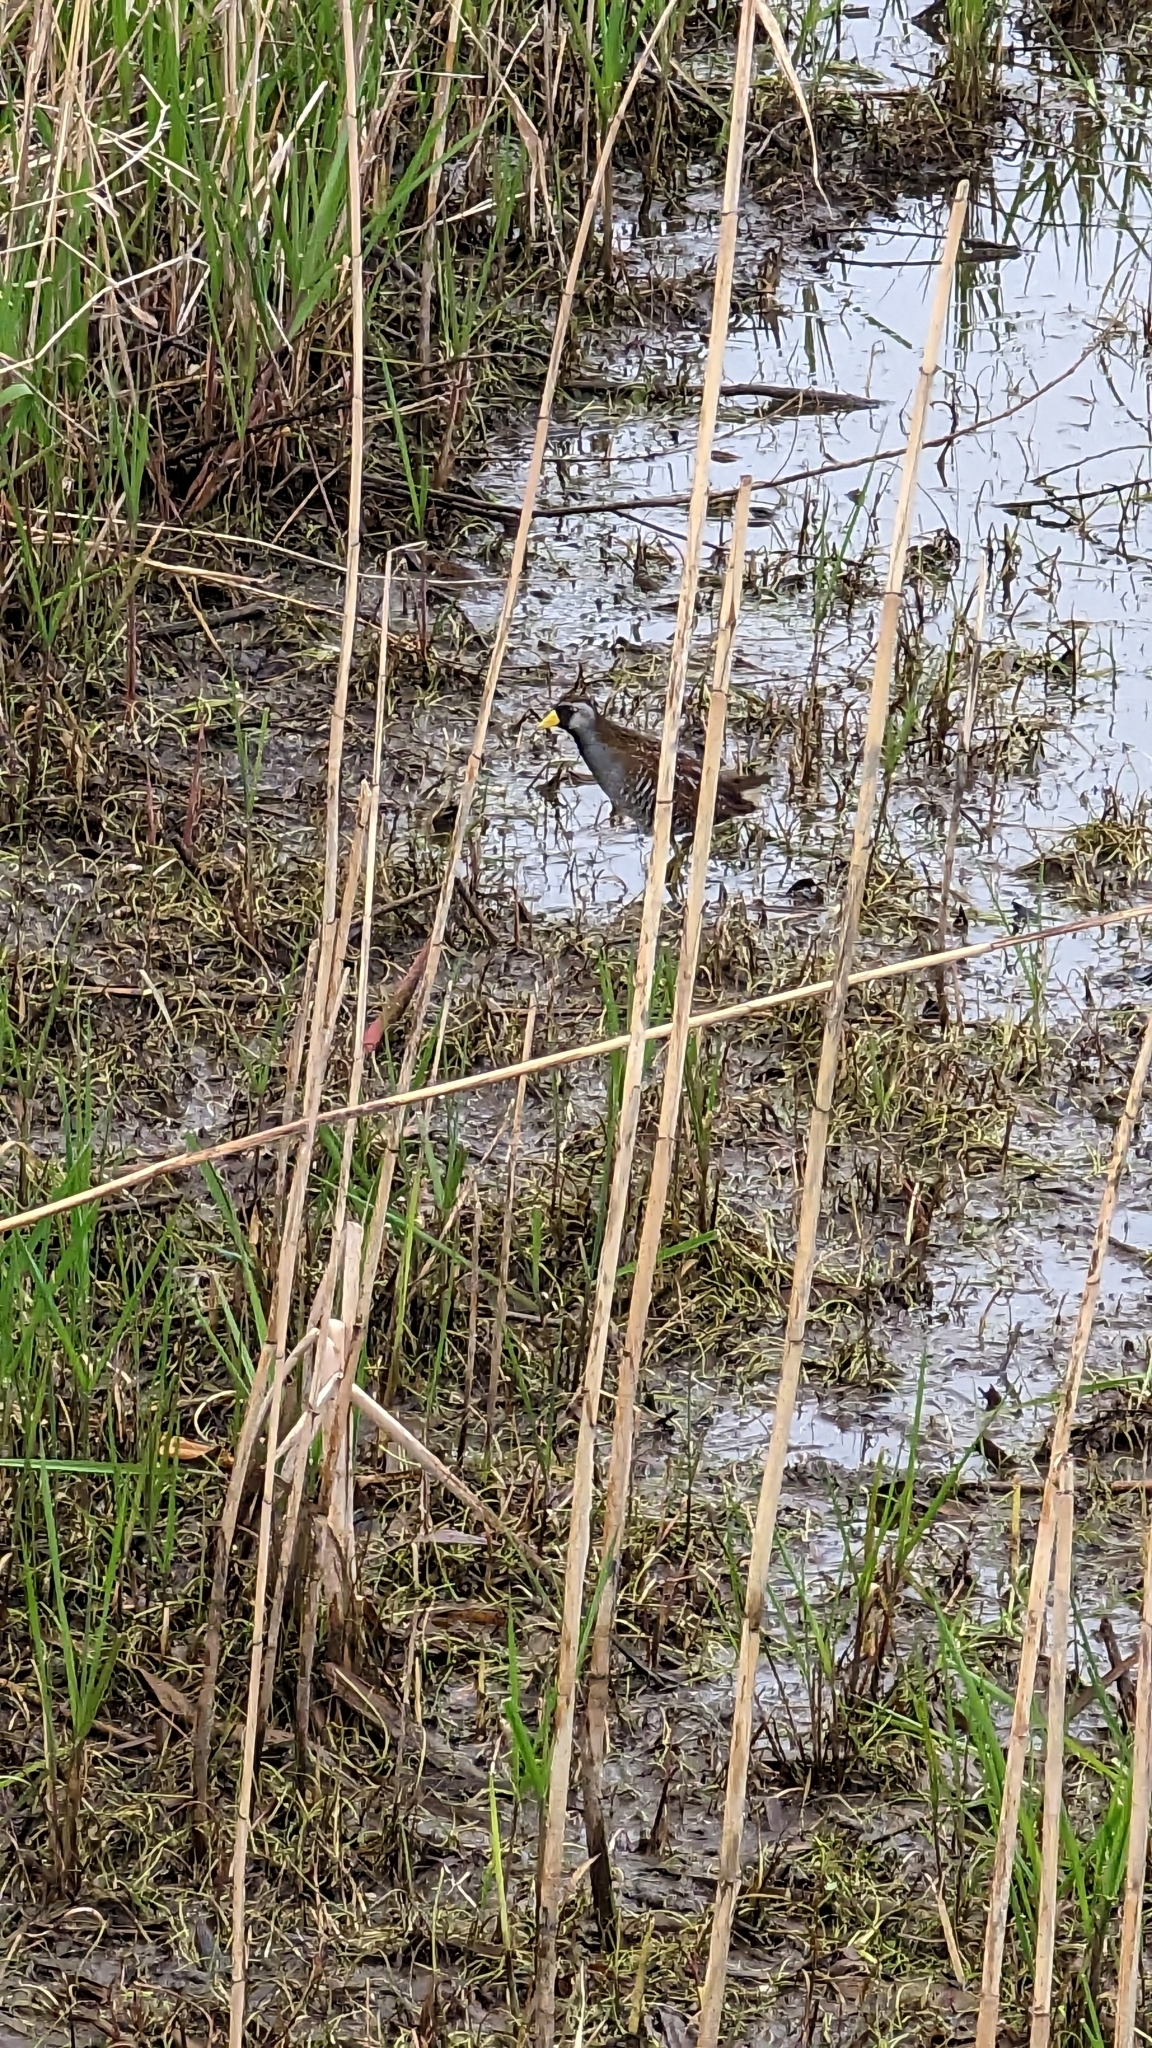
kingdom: Animalia
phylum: Chordata
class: Aves
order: Gruiformes
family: Rallidae
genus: Porzana
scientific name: Porzana carolina
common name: Sora
